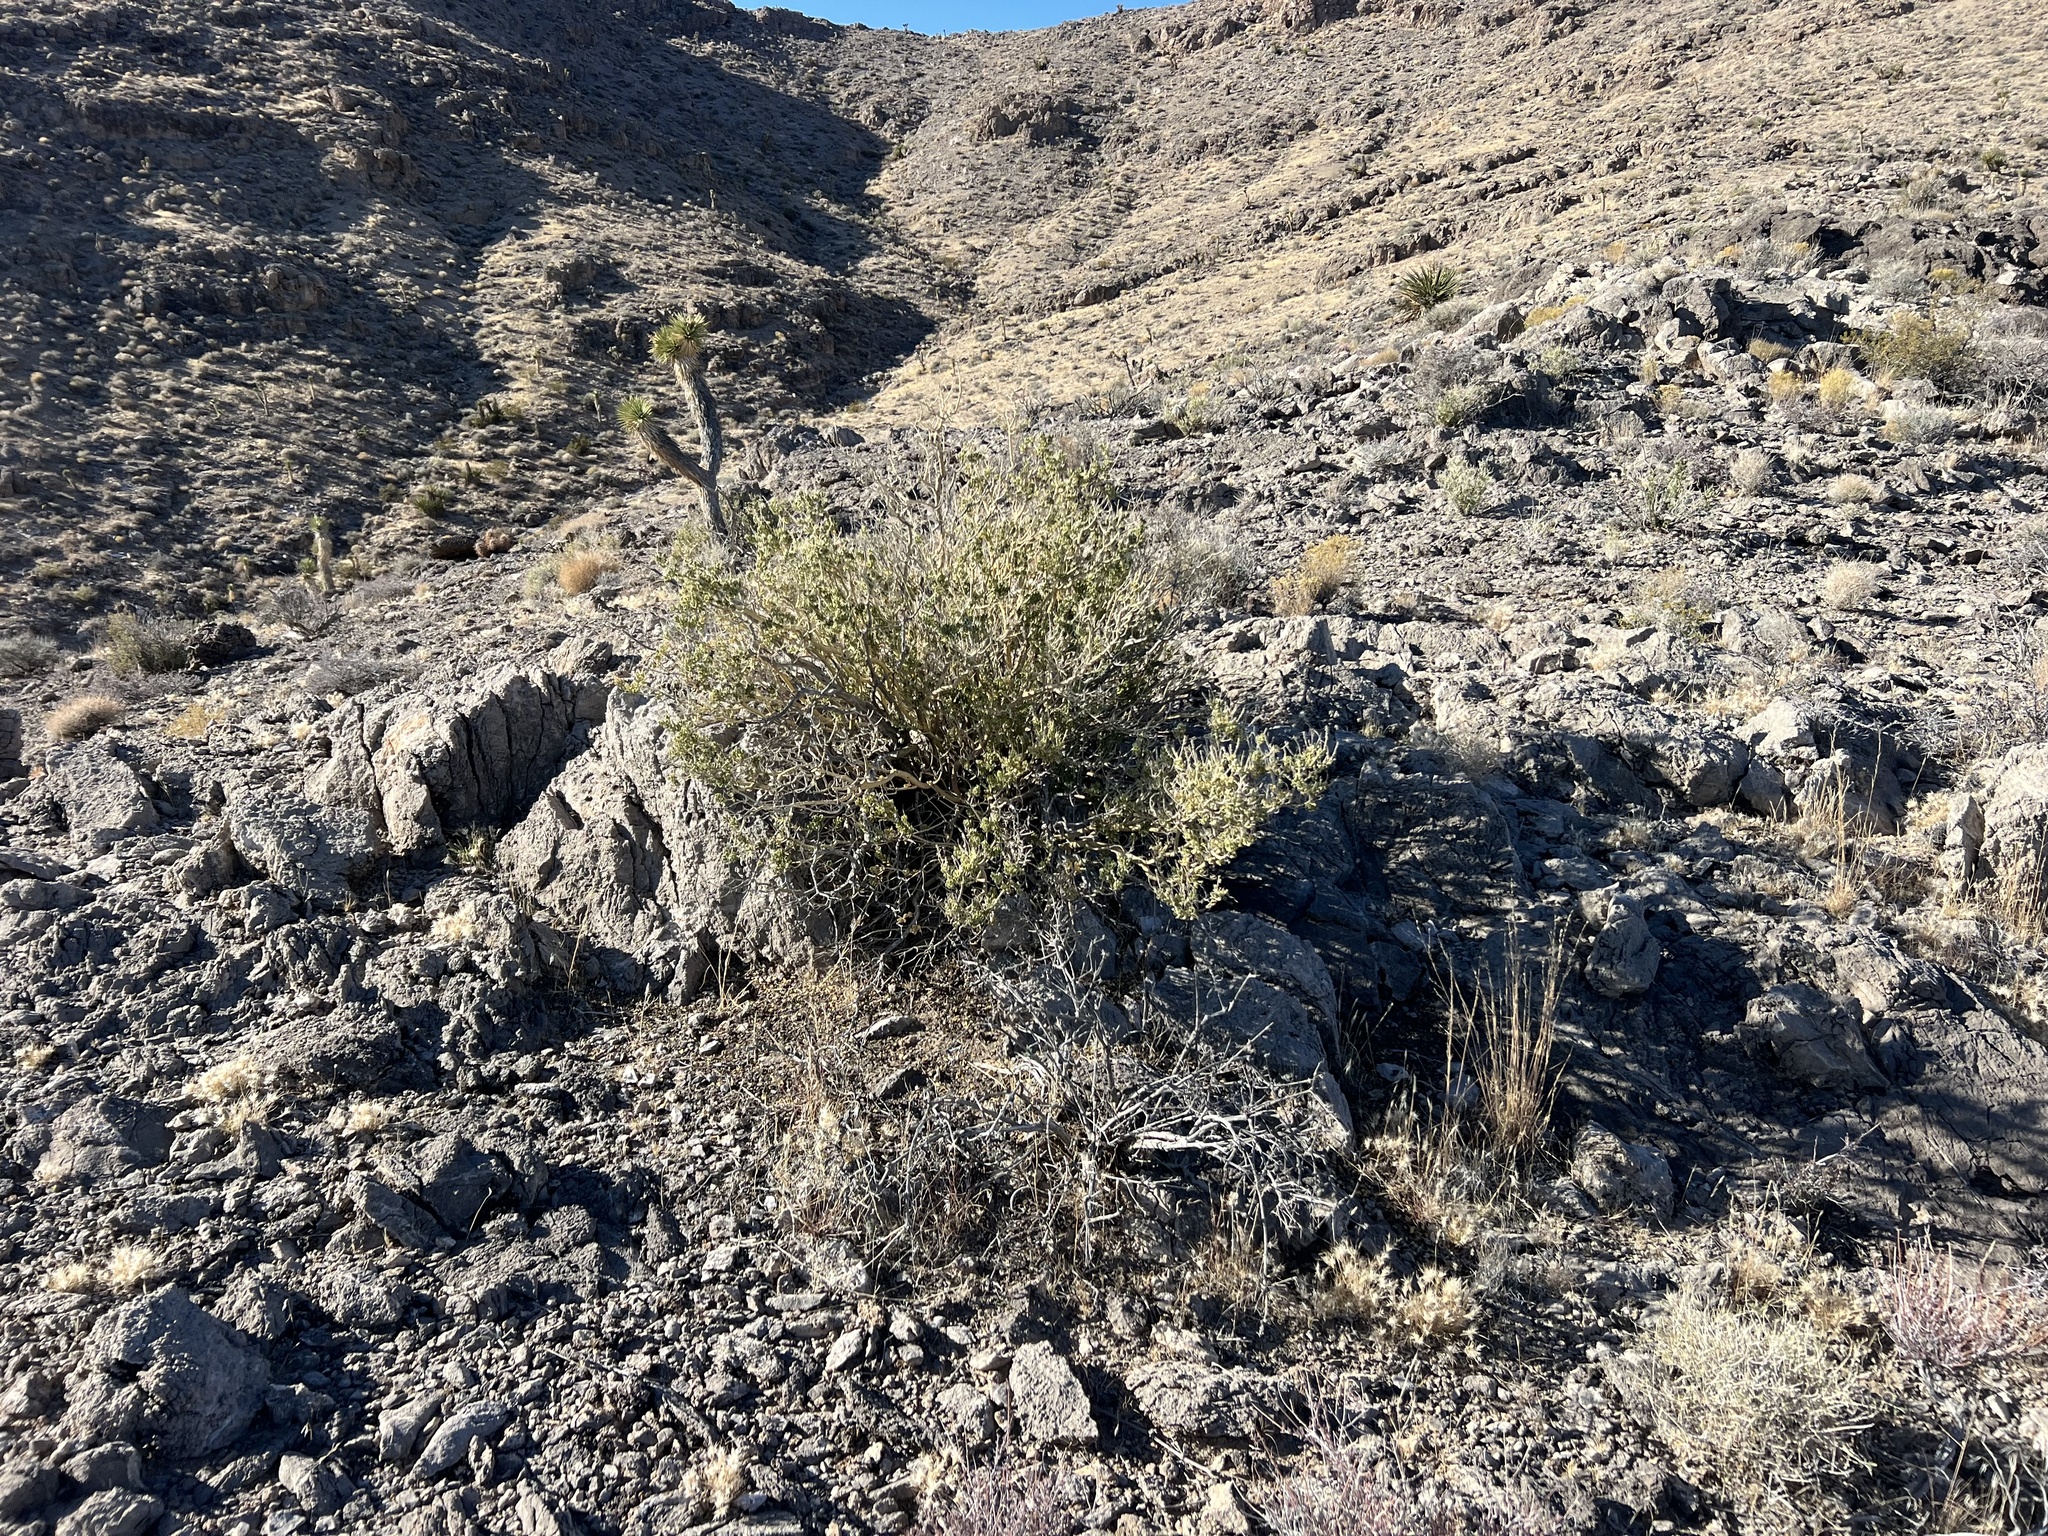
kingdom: Plantae
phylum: Tracheophyta
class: Magnoliopsida
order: Celastrales
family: Celastraceae
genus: Mortonia
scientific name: Mortonia utahensis
